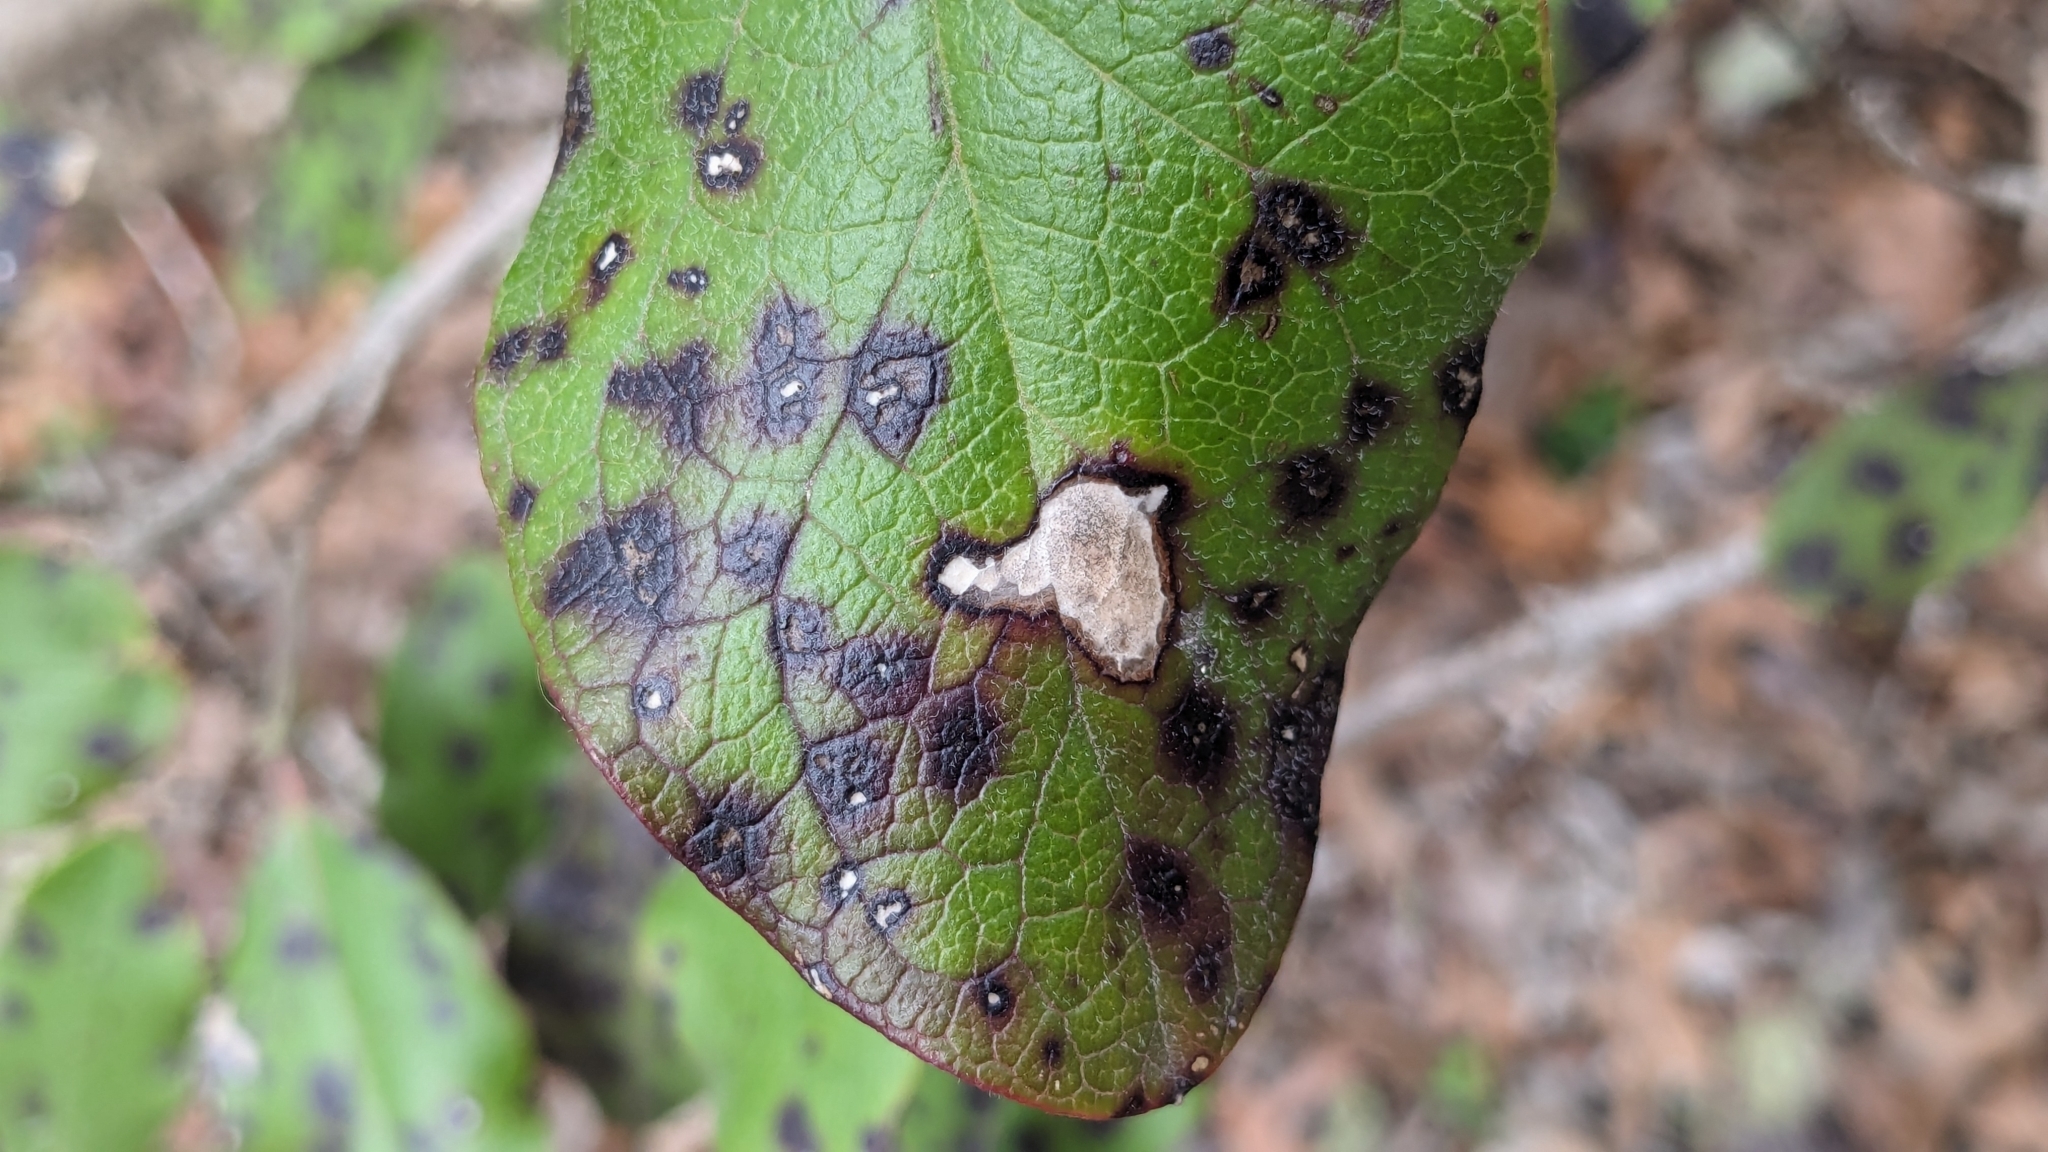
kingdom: Plantae
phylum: Tracheophyta
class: Magnoliopsida
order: Garryales
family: Garryaceae
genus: Garrya
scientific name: Garrya lindheimeri
